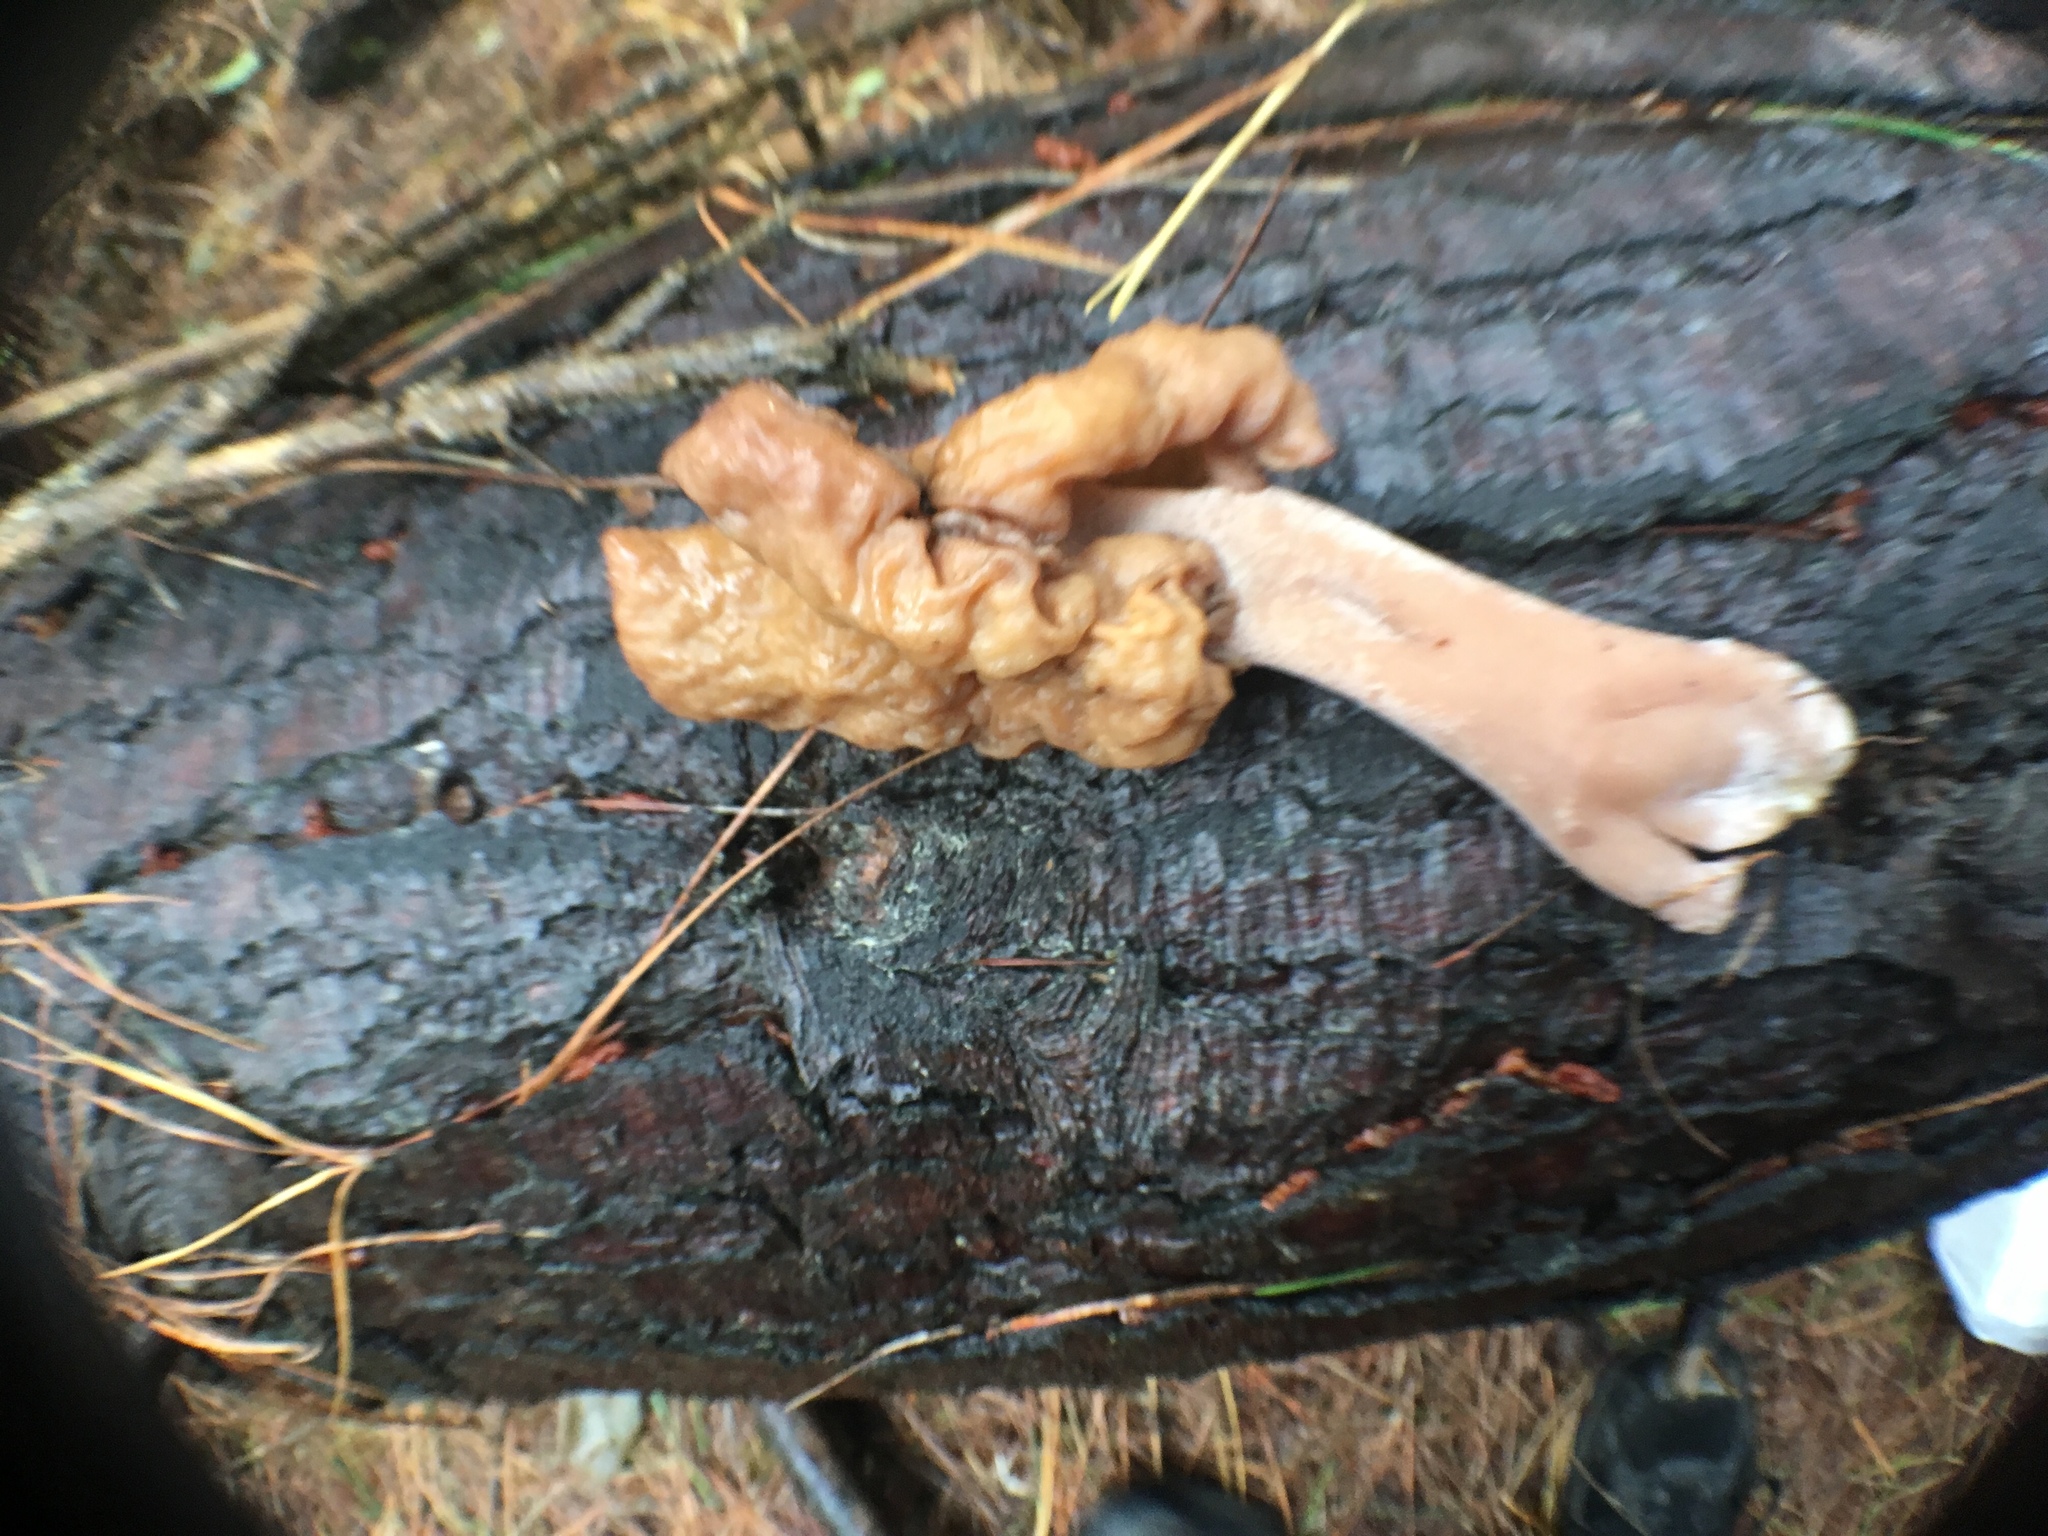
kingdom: Fungi
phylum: Ascomycota
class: Pezizomycetes
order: Pezizales
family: Discinaceae
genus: Gyromitra
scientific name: Gyromitra infula
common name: Pouched false morel
